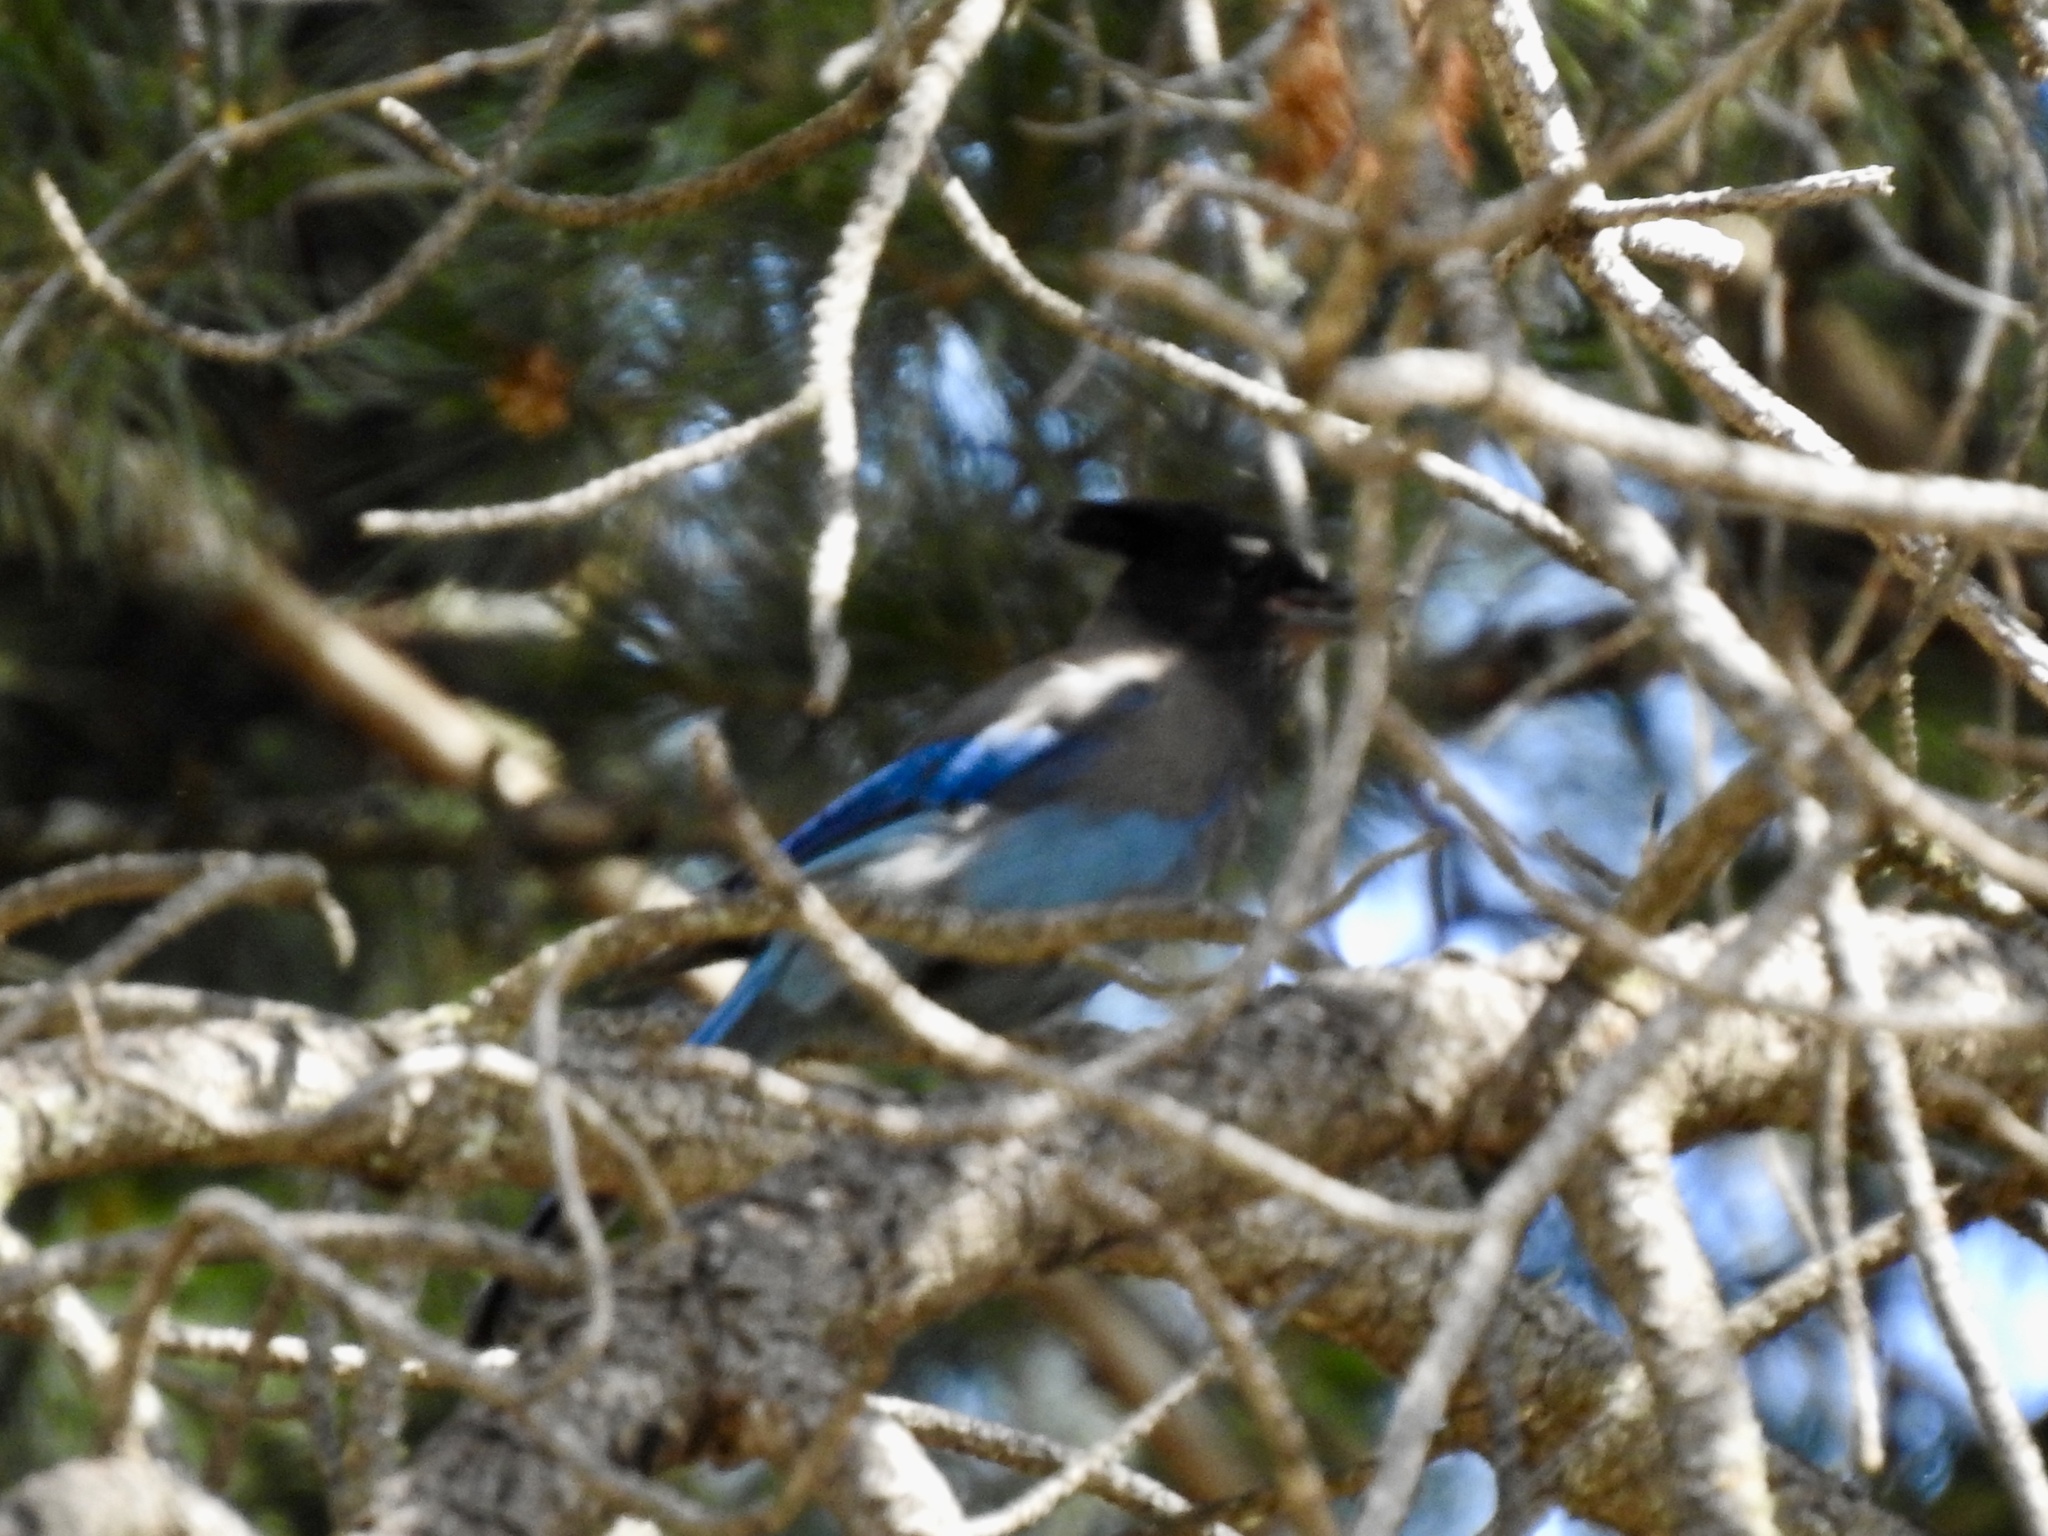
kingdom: Animalia
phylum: Chordata
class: Aves
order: Passeriformes
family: Corvidae
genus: Cyanocitta
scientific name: Cyanocitta stelleri
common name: Steller's jay
